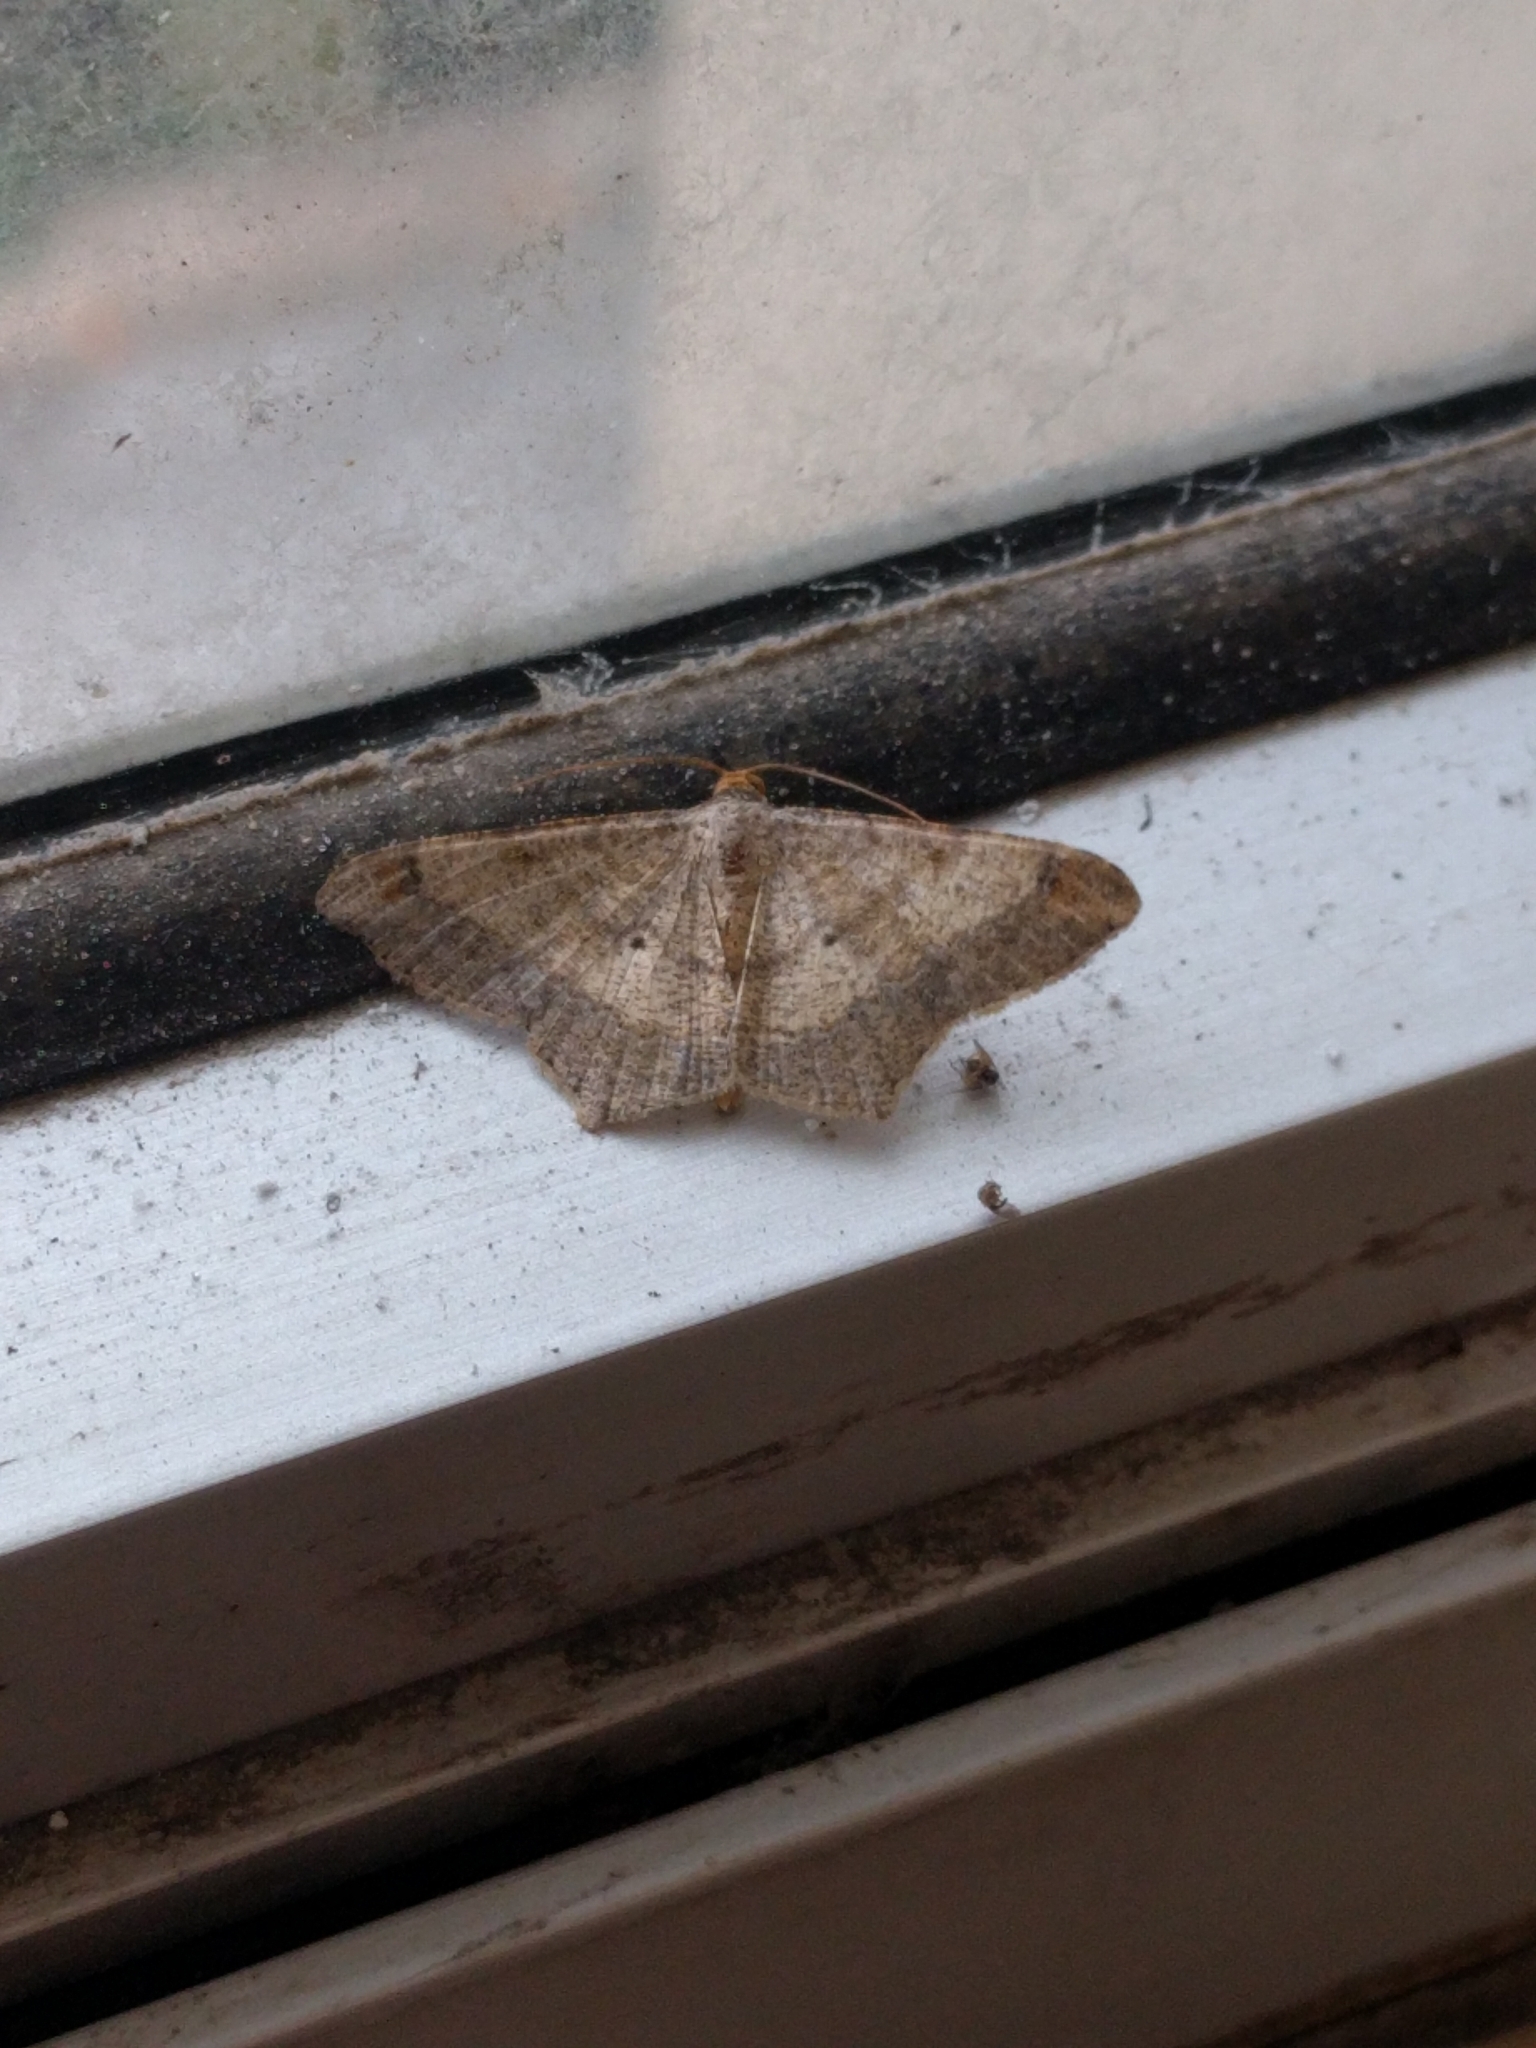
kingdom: Animalia
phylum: Arthropoda
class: Insecta
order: Lepidoptera
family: Geometridae
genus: Macaria
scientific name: Macaria abydata
